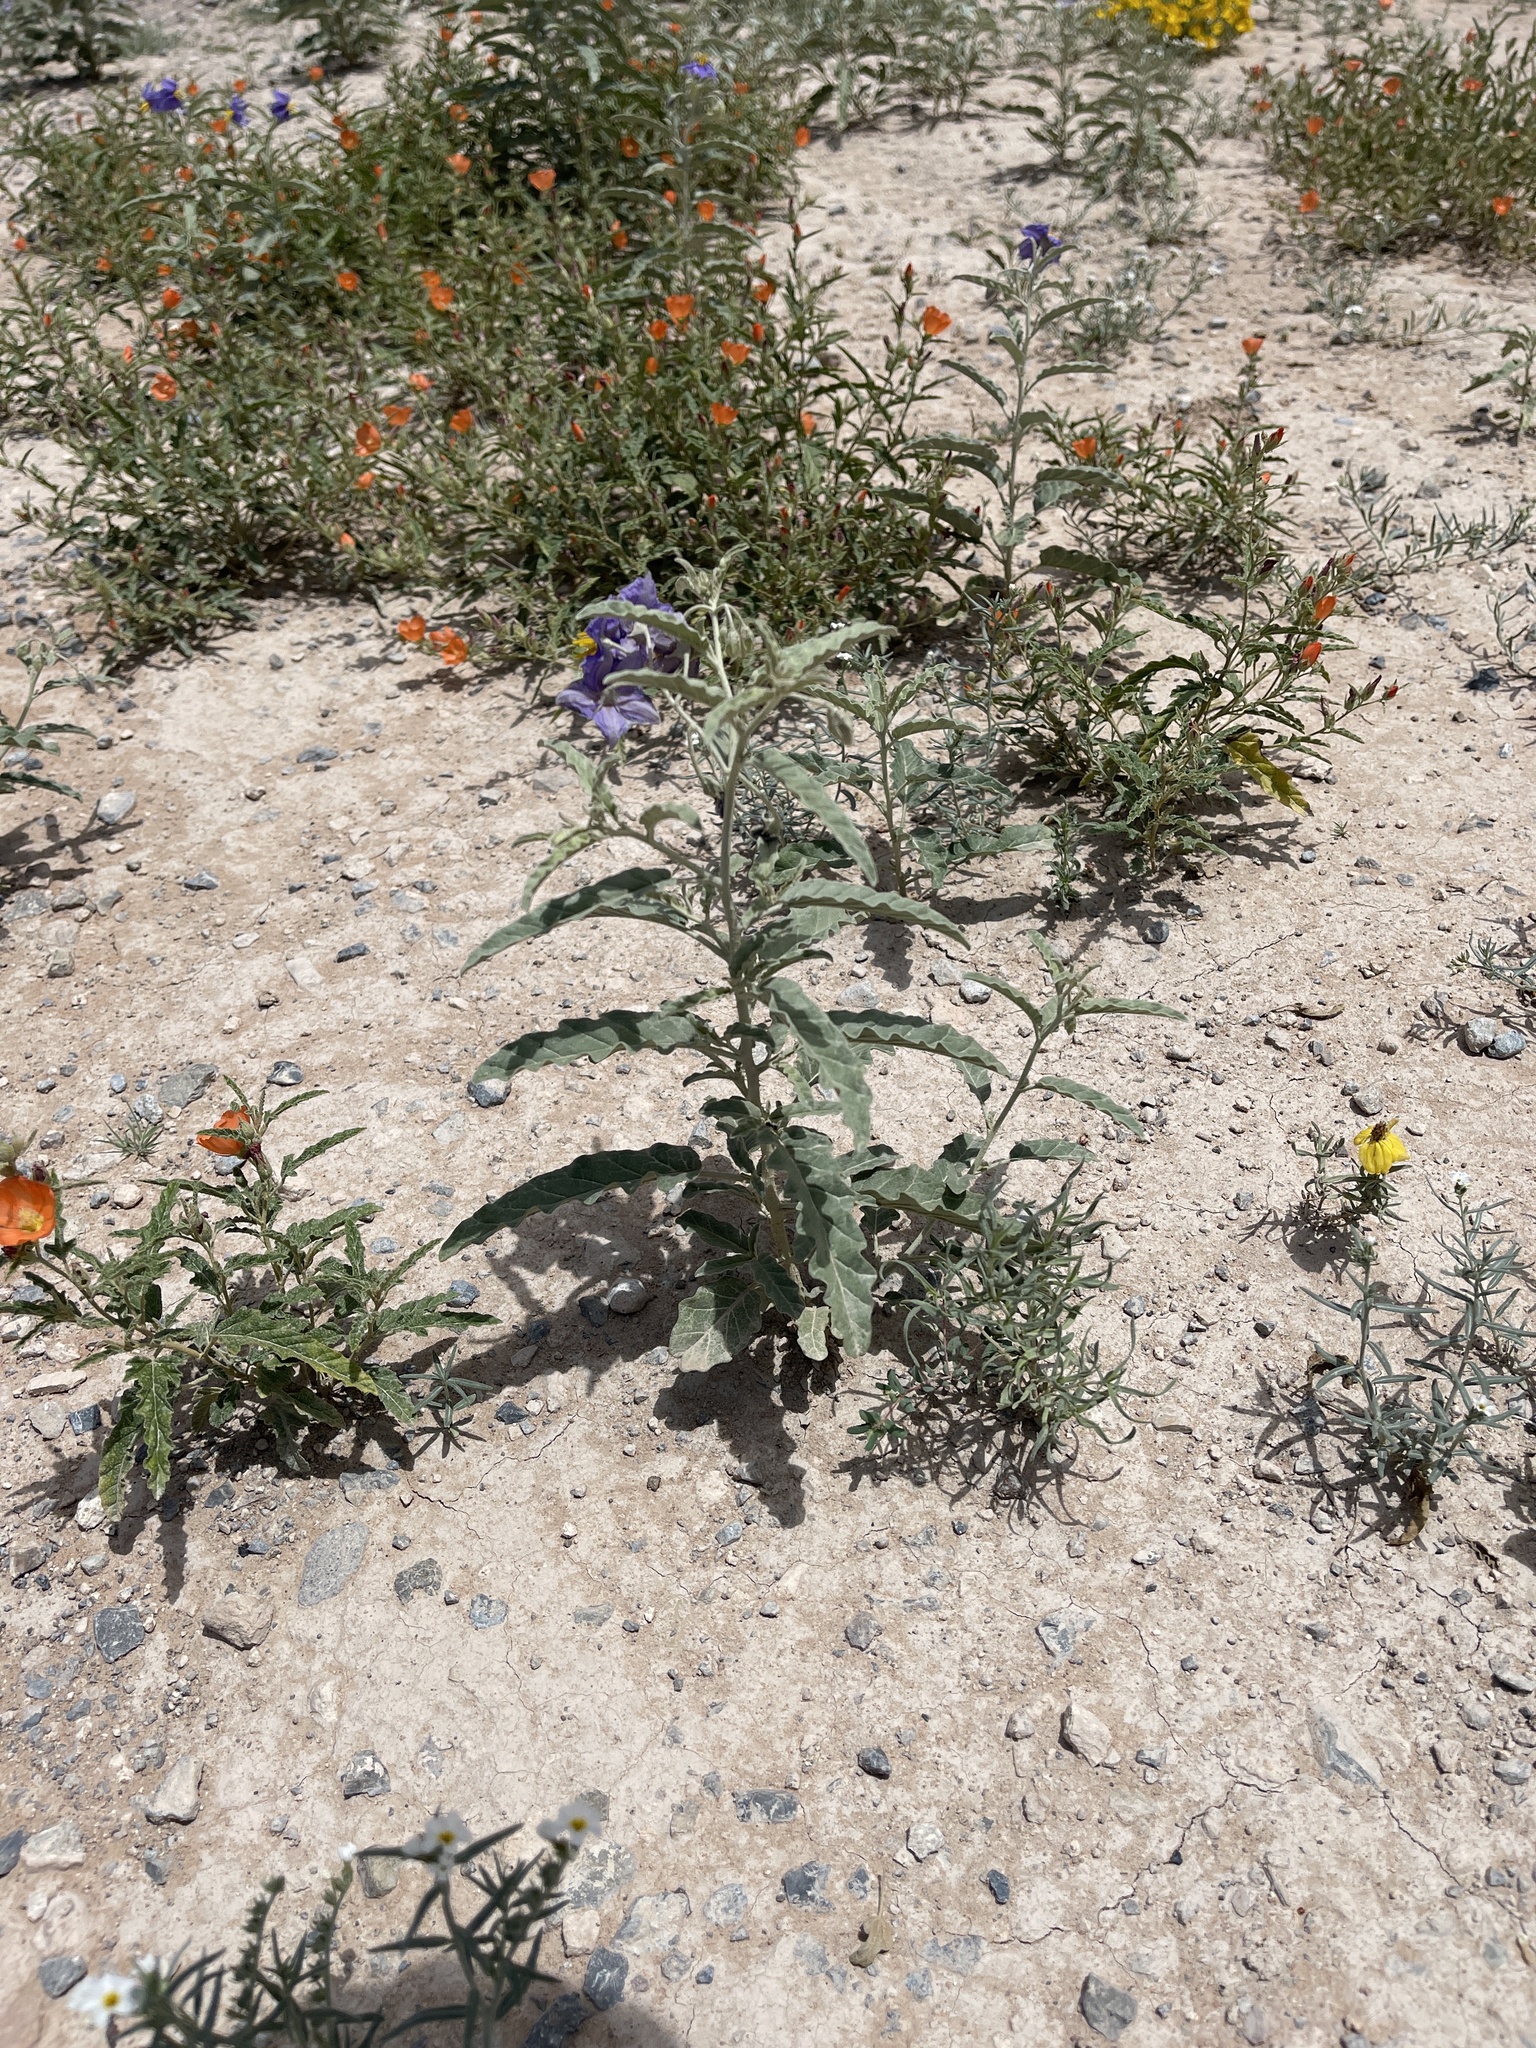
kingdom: Plantae
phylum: Tracheophyta
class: Magnoliopsida
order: Solanales
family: Solanaceae
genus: Solanum
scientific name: Solanum elaeagnifolium
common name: Silverleaf nightshade
